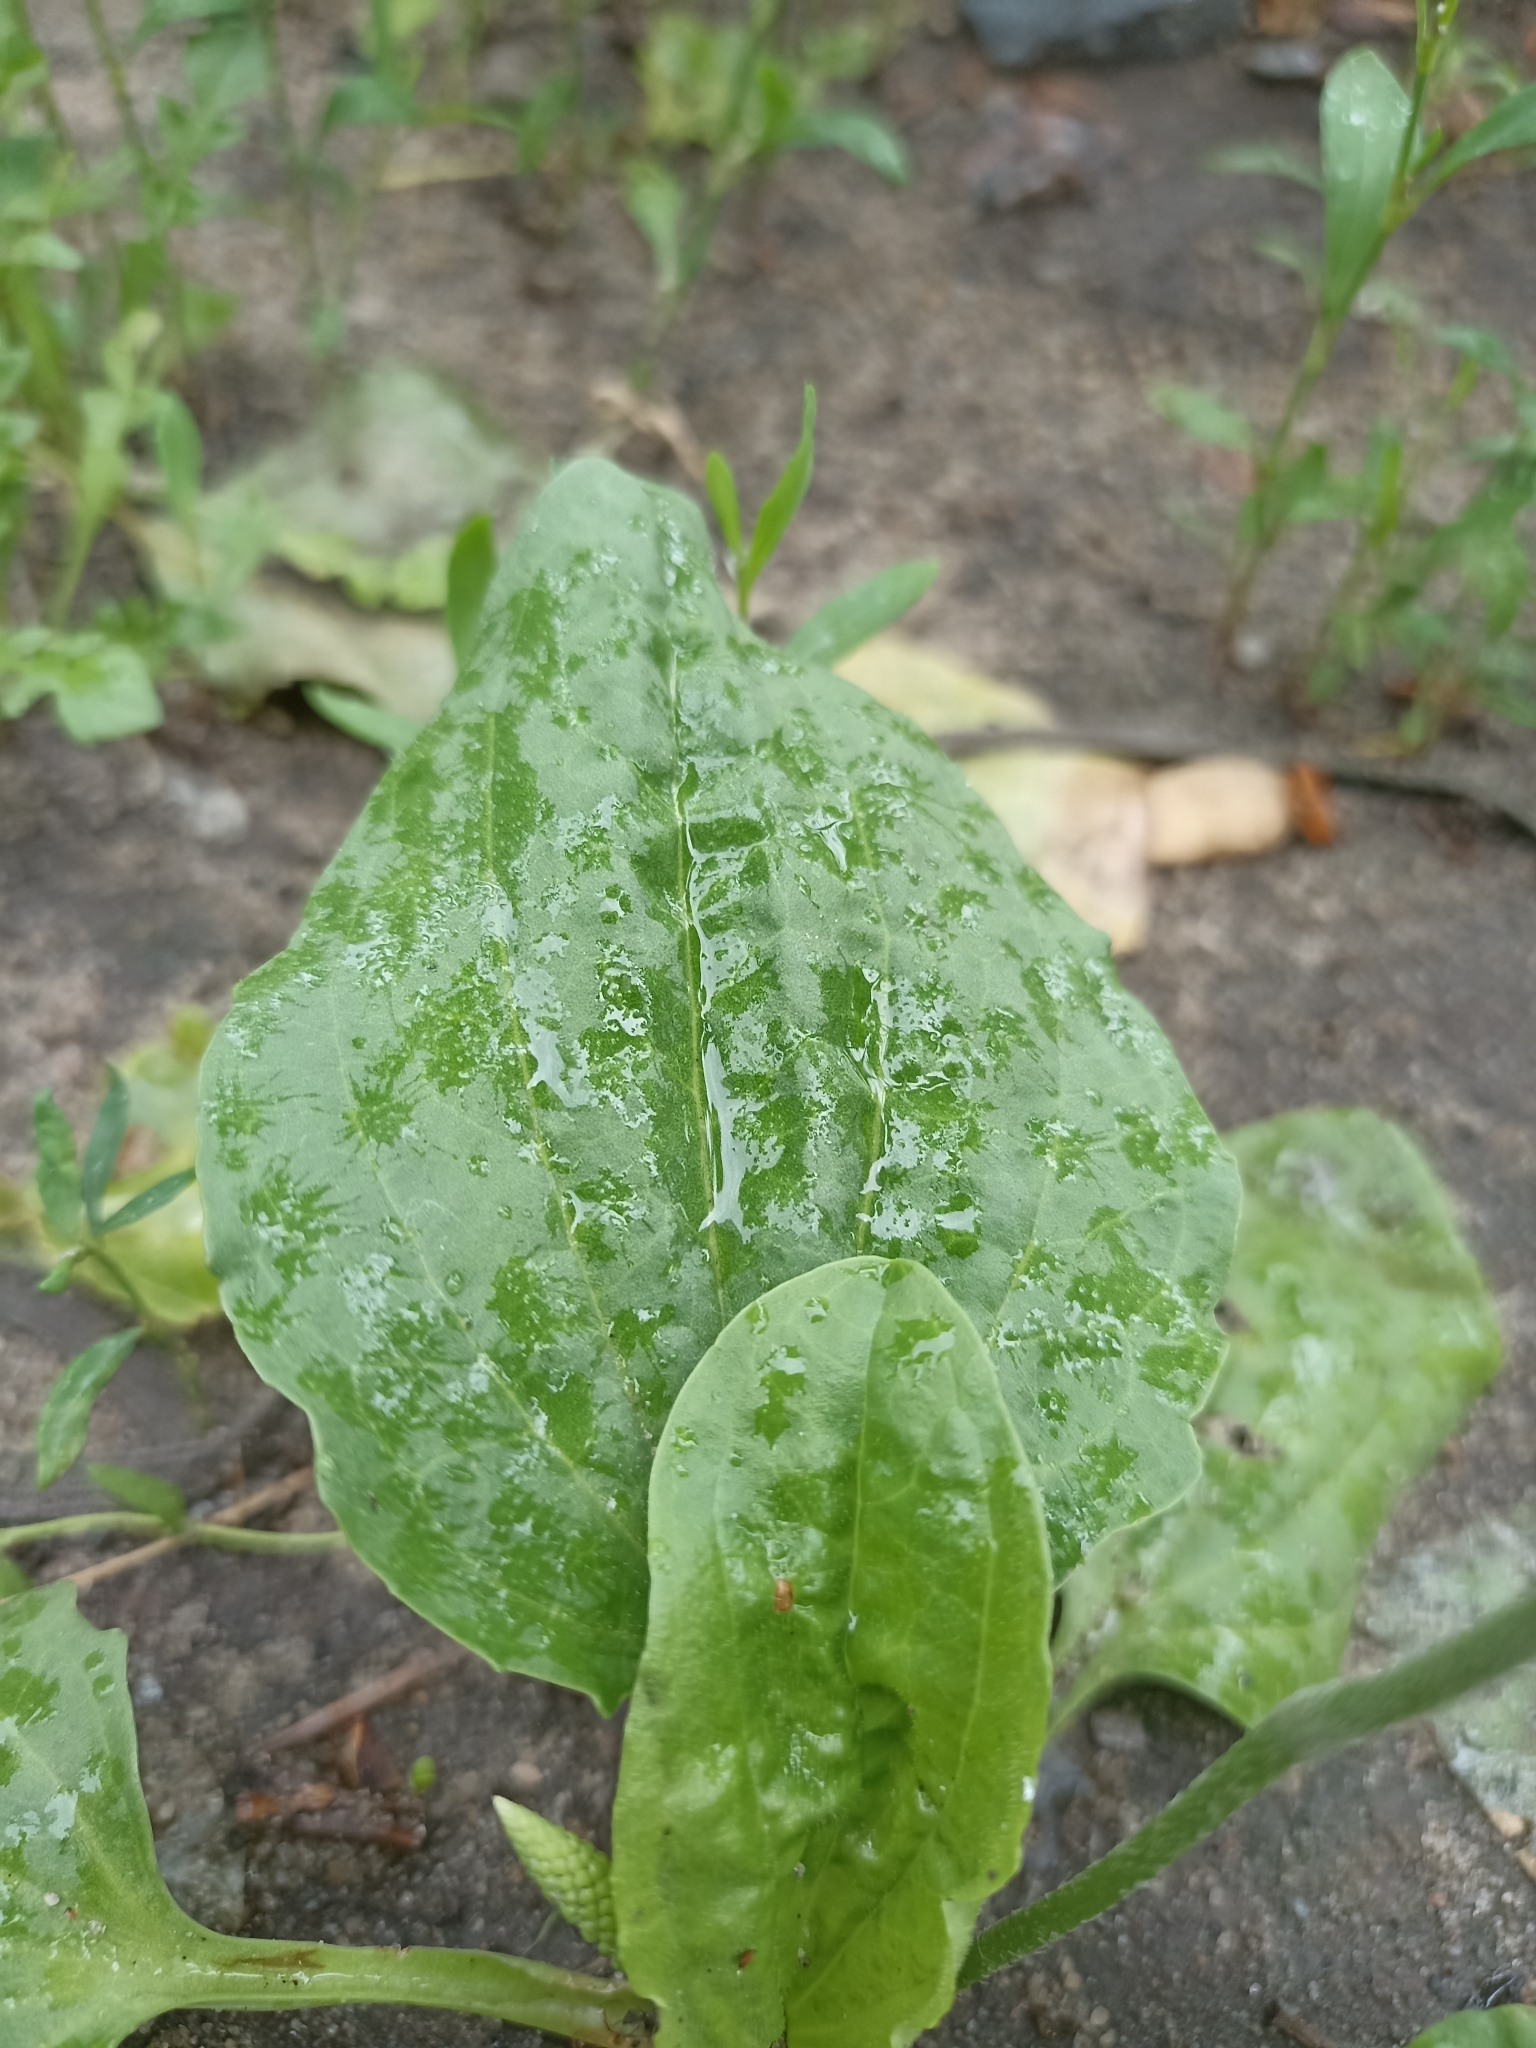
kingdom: Plantae
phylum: Tracheophyta
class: Magnoliopsida
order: Lamiales
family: Plantaginaceae
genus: Plantago
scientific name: Plantago major
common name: Common plantain
